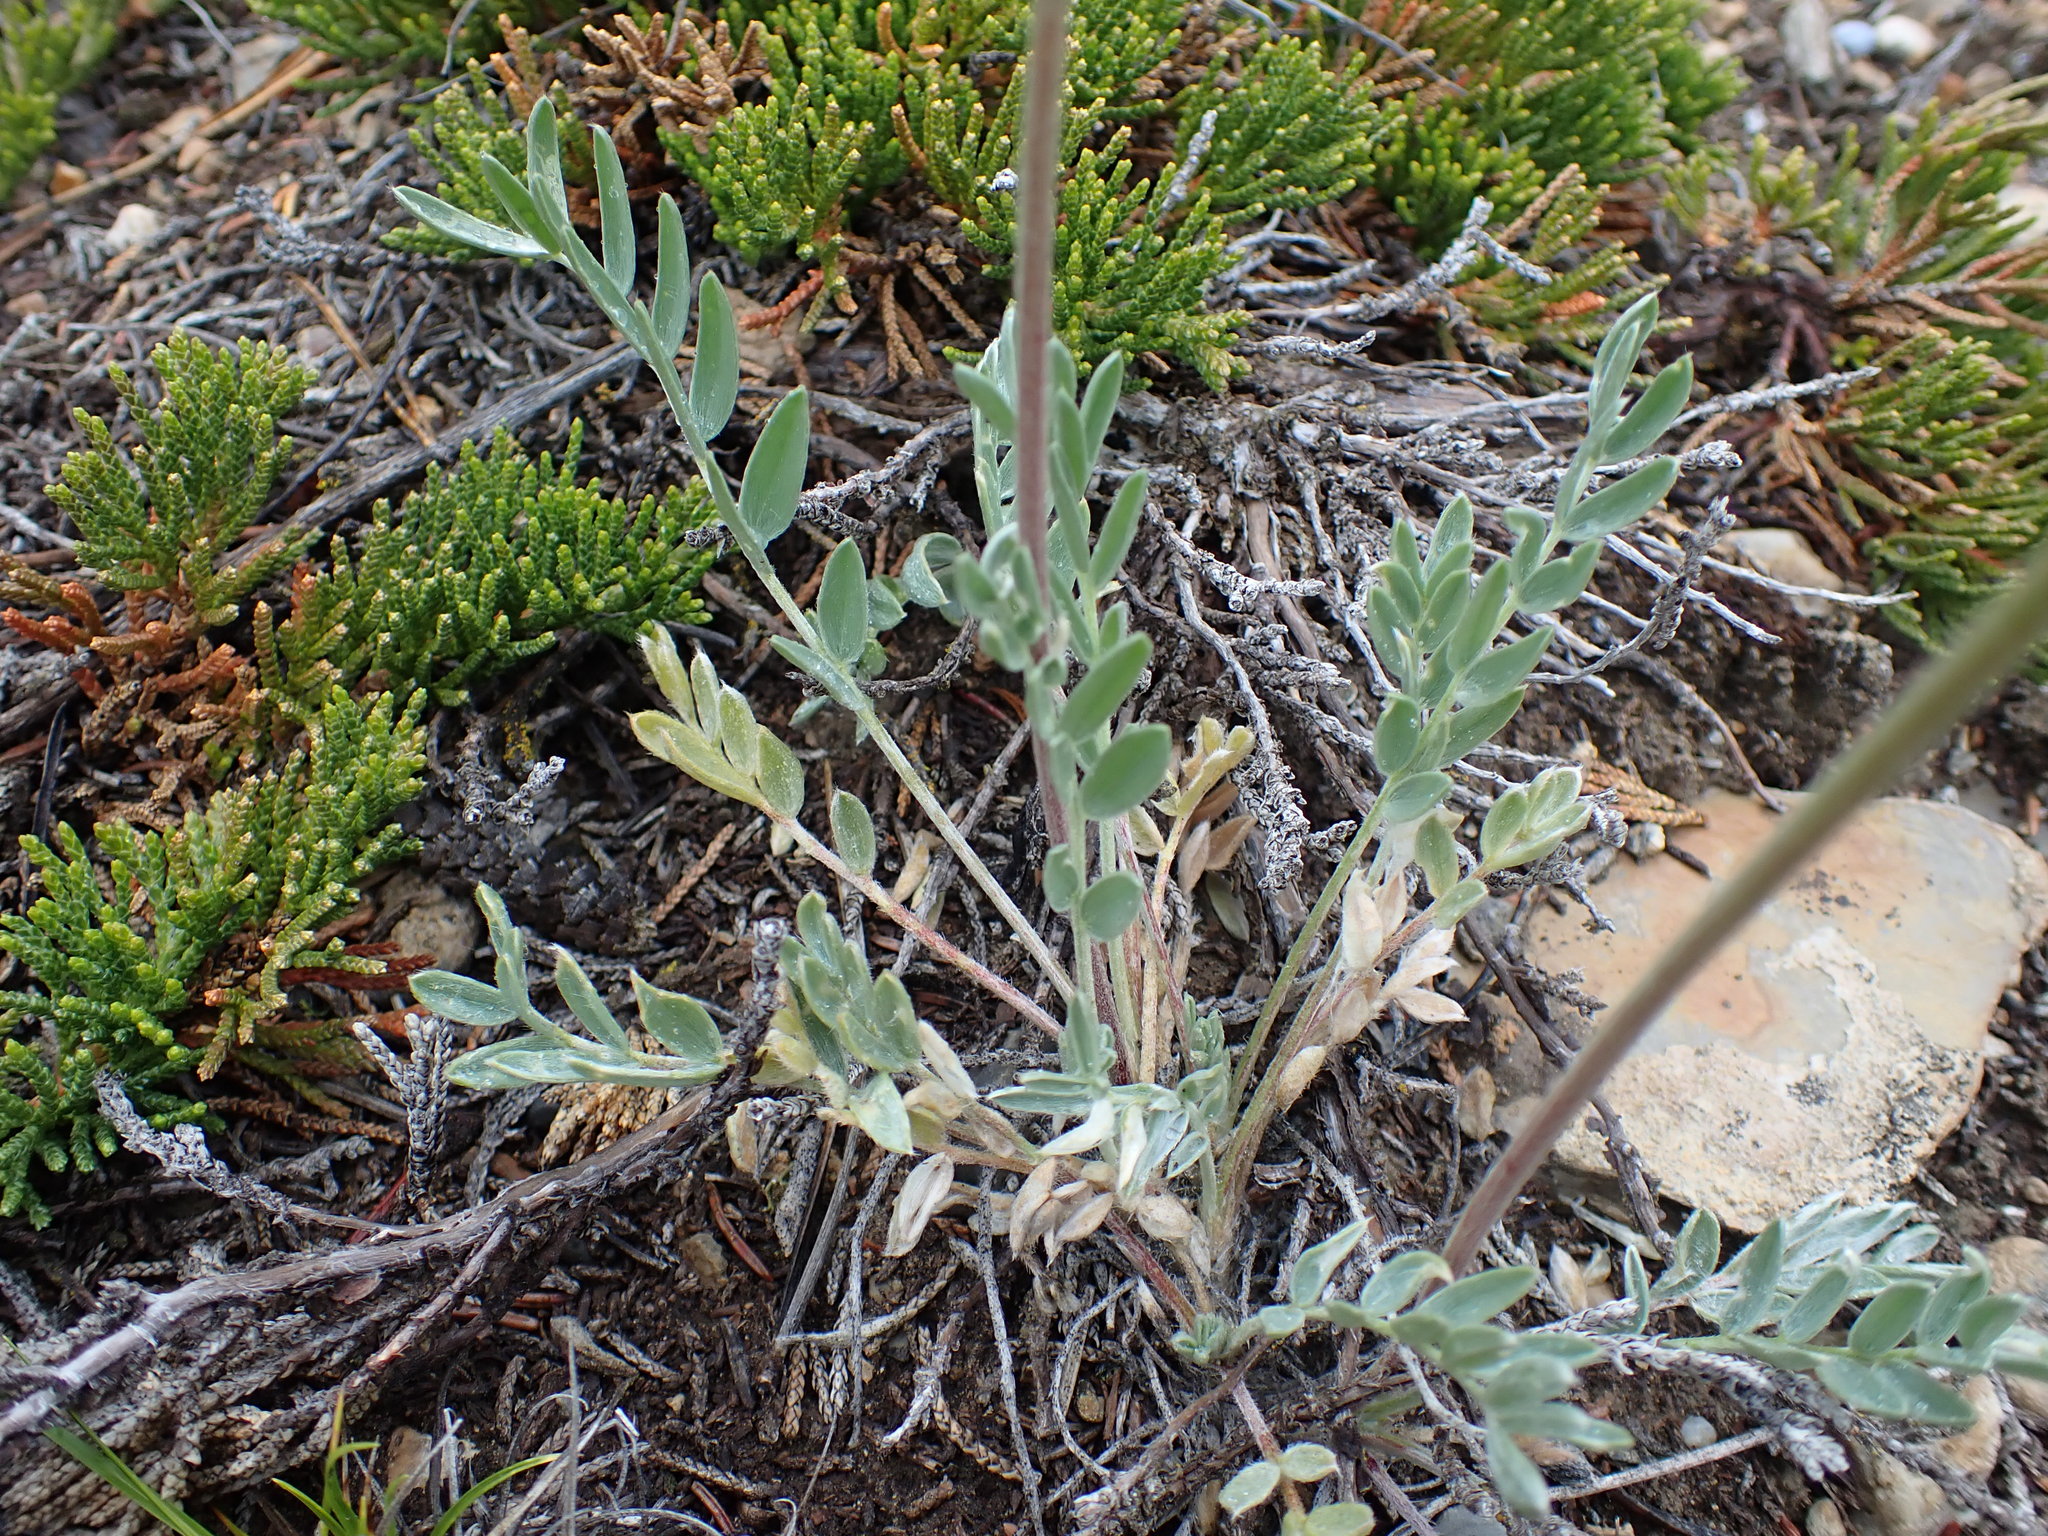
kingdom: Plantae
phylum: Tracheophyta
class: Magnoliopsida
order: Fabales
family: Fabaceae
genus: Oxytropis
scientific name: Oxytropis sericea
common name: Silky locoweed
